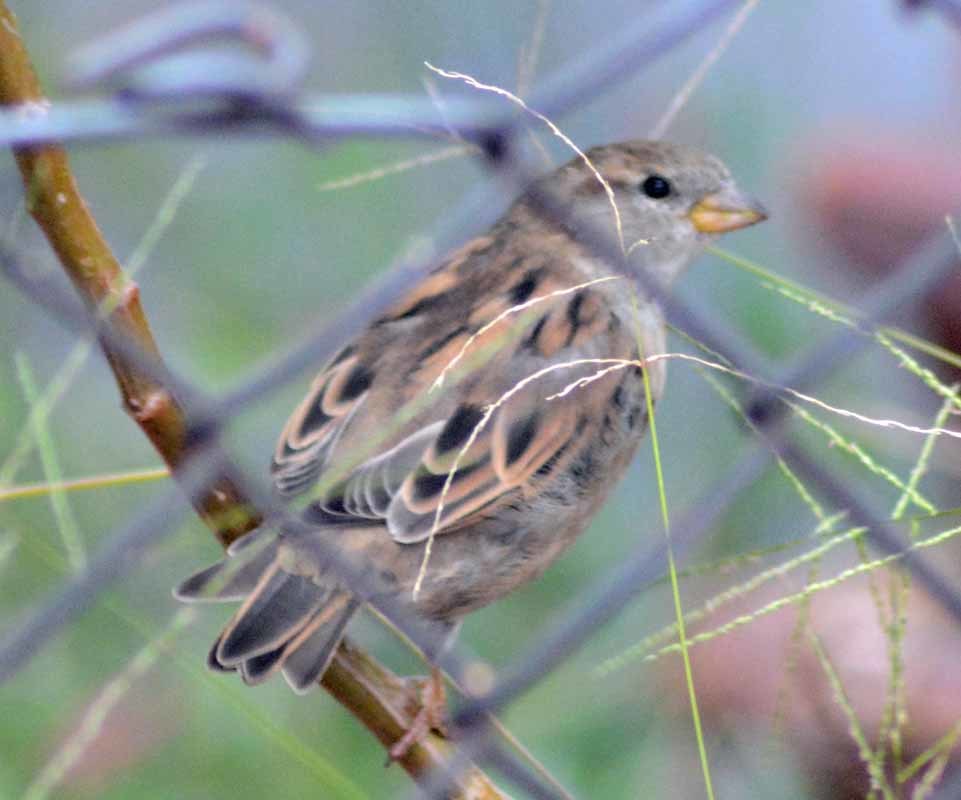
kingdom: Animalia
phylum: Chordata
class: Aves
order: Passeriformes
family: Passeridae
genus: Passer
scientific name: Passer domesticus
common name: House sparrow
